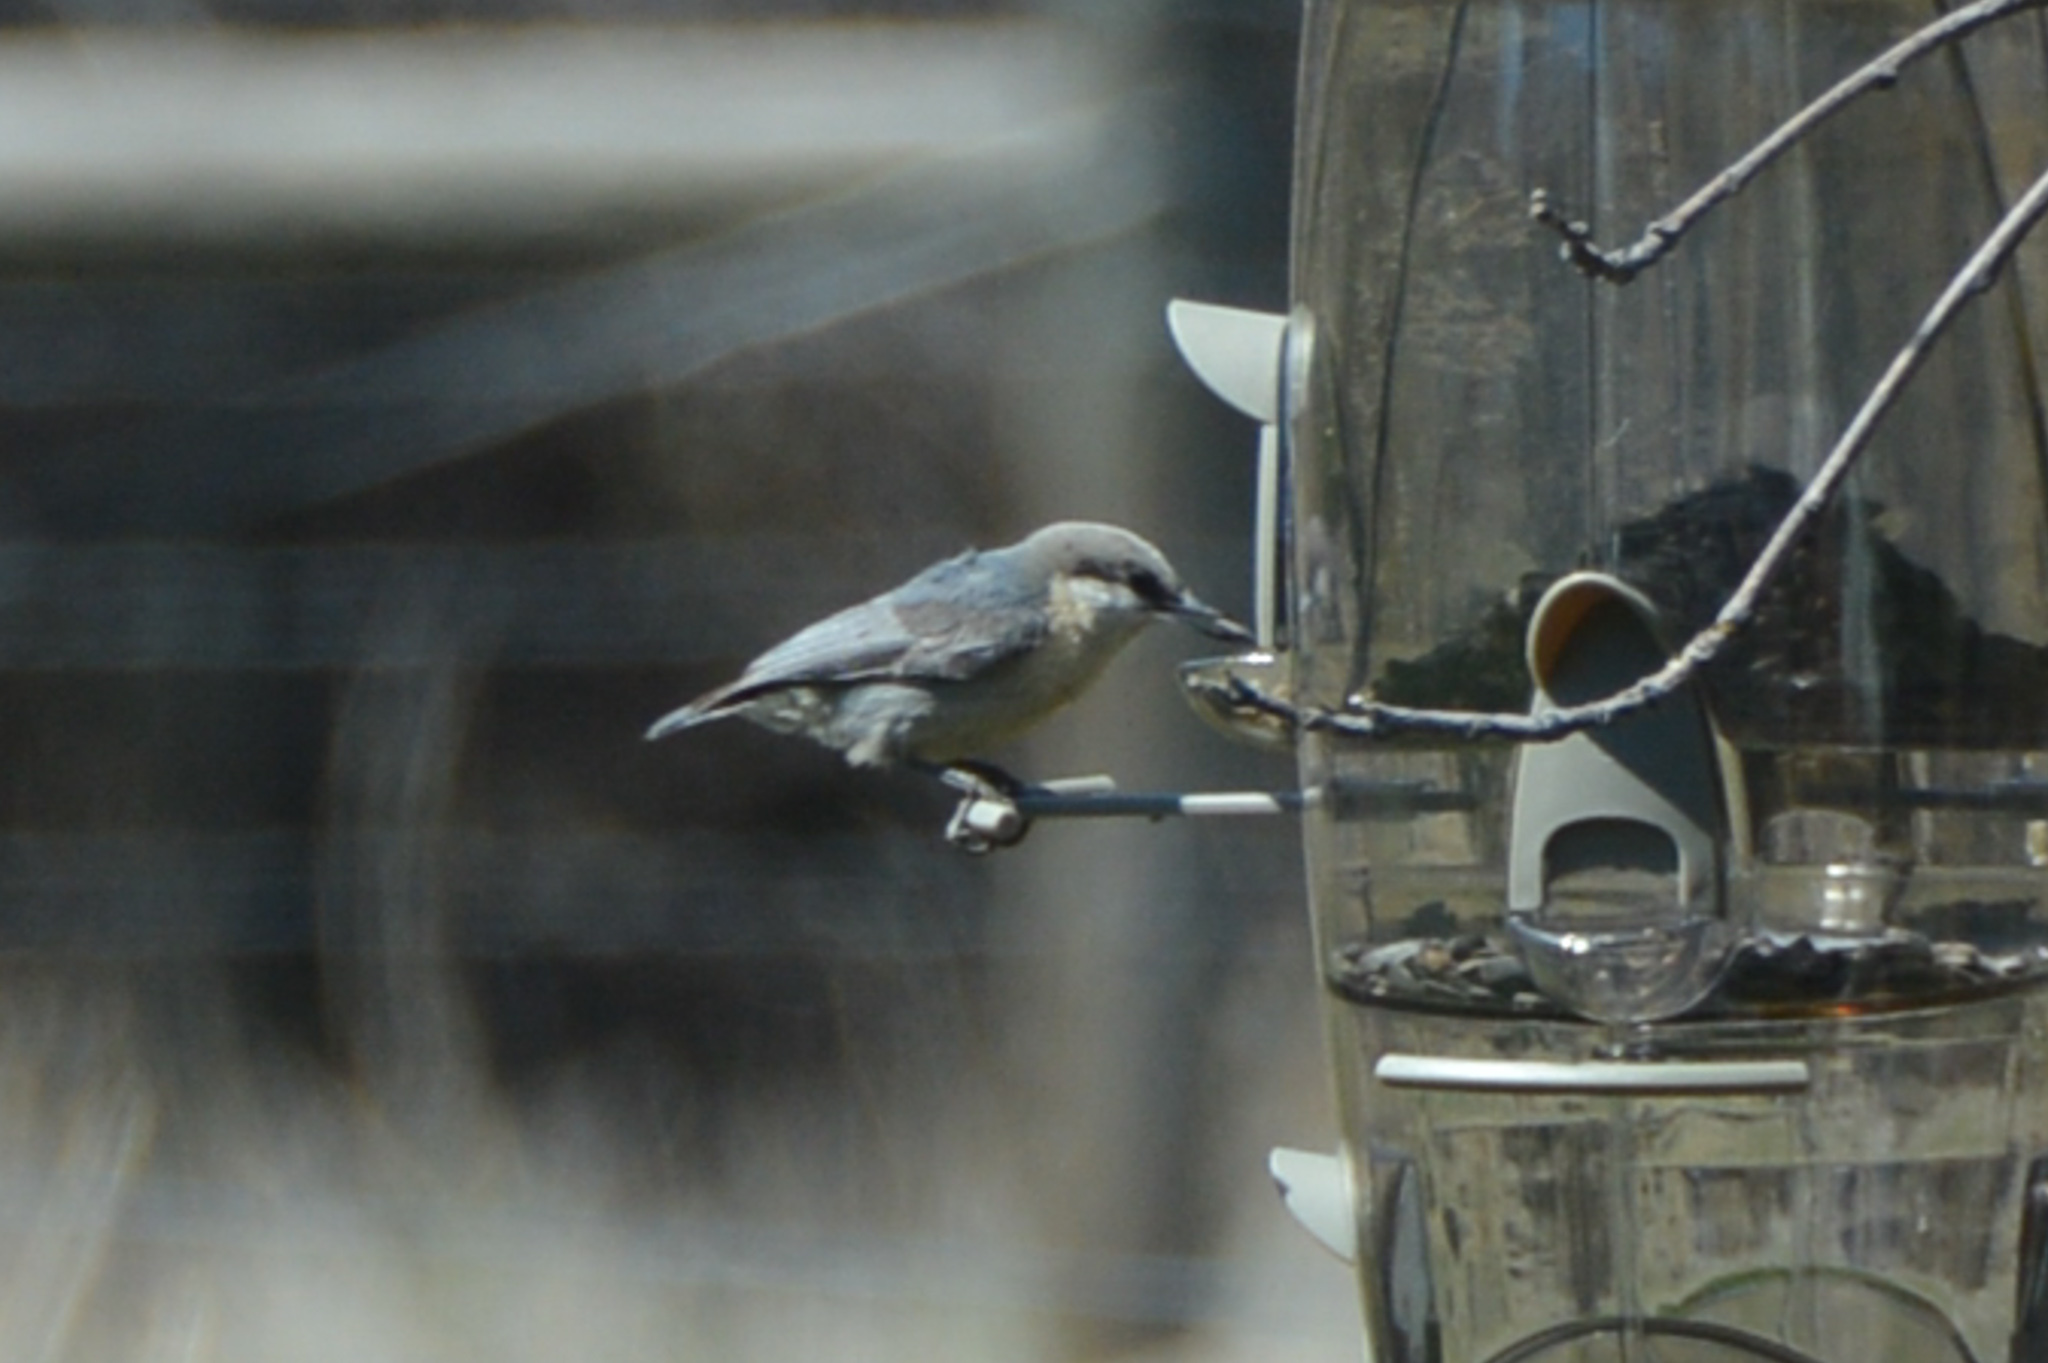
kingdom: Animalia
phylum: Chordata
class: Aves
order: Passeriformes
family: Sittidae
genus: Sitta
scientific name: Sitta pygmaea
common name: Pygmy nuthatch
